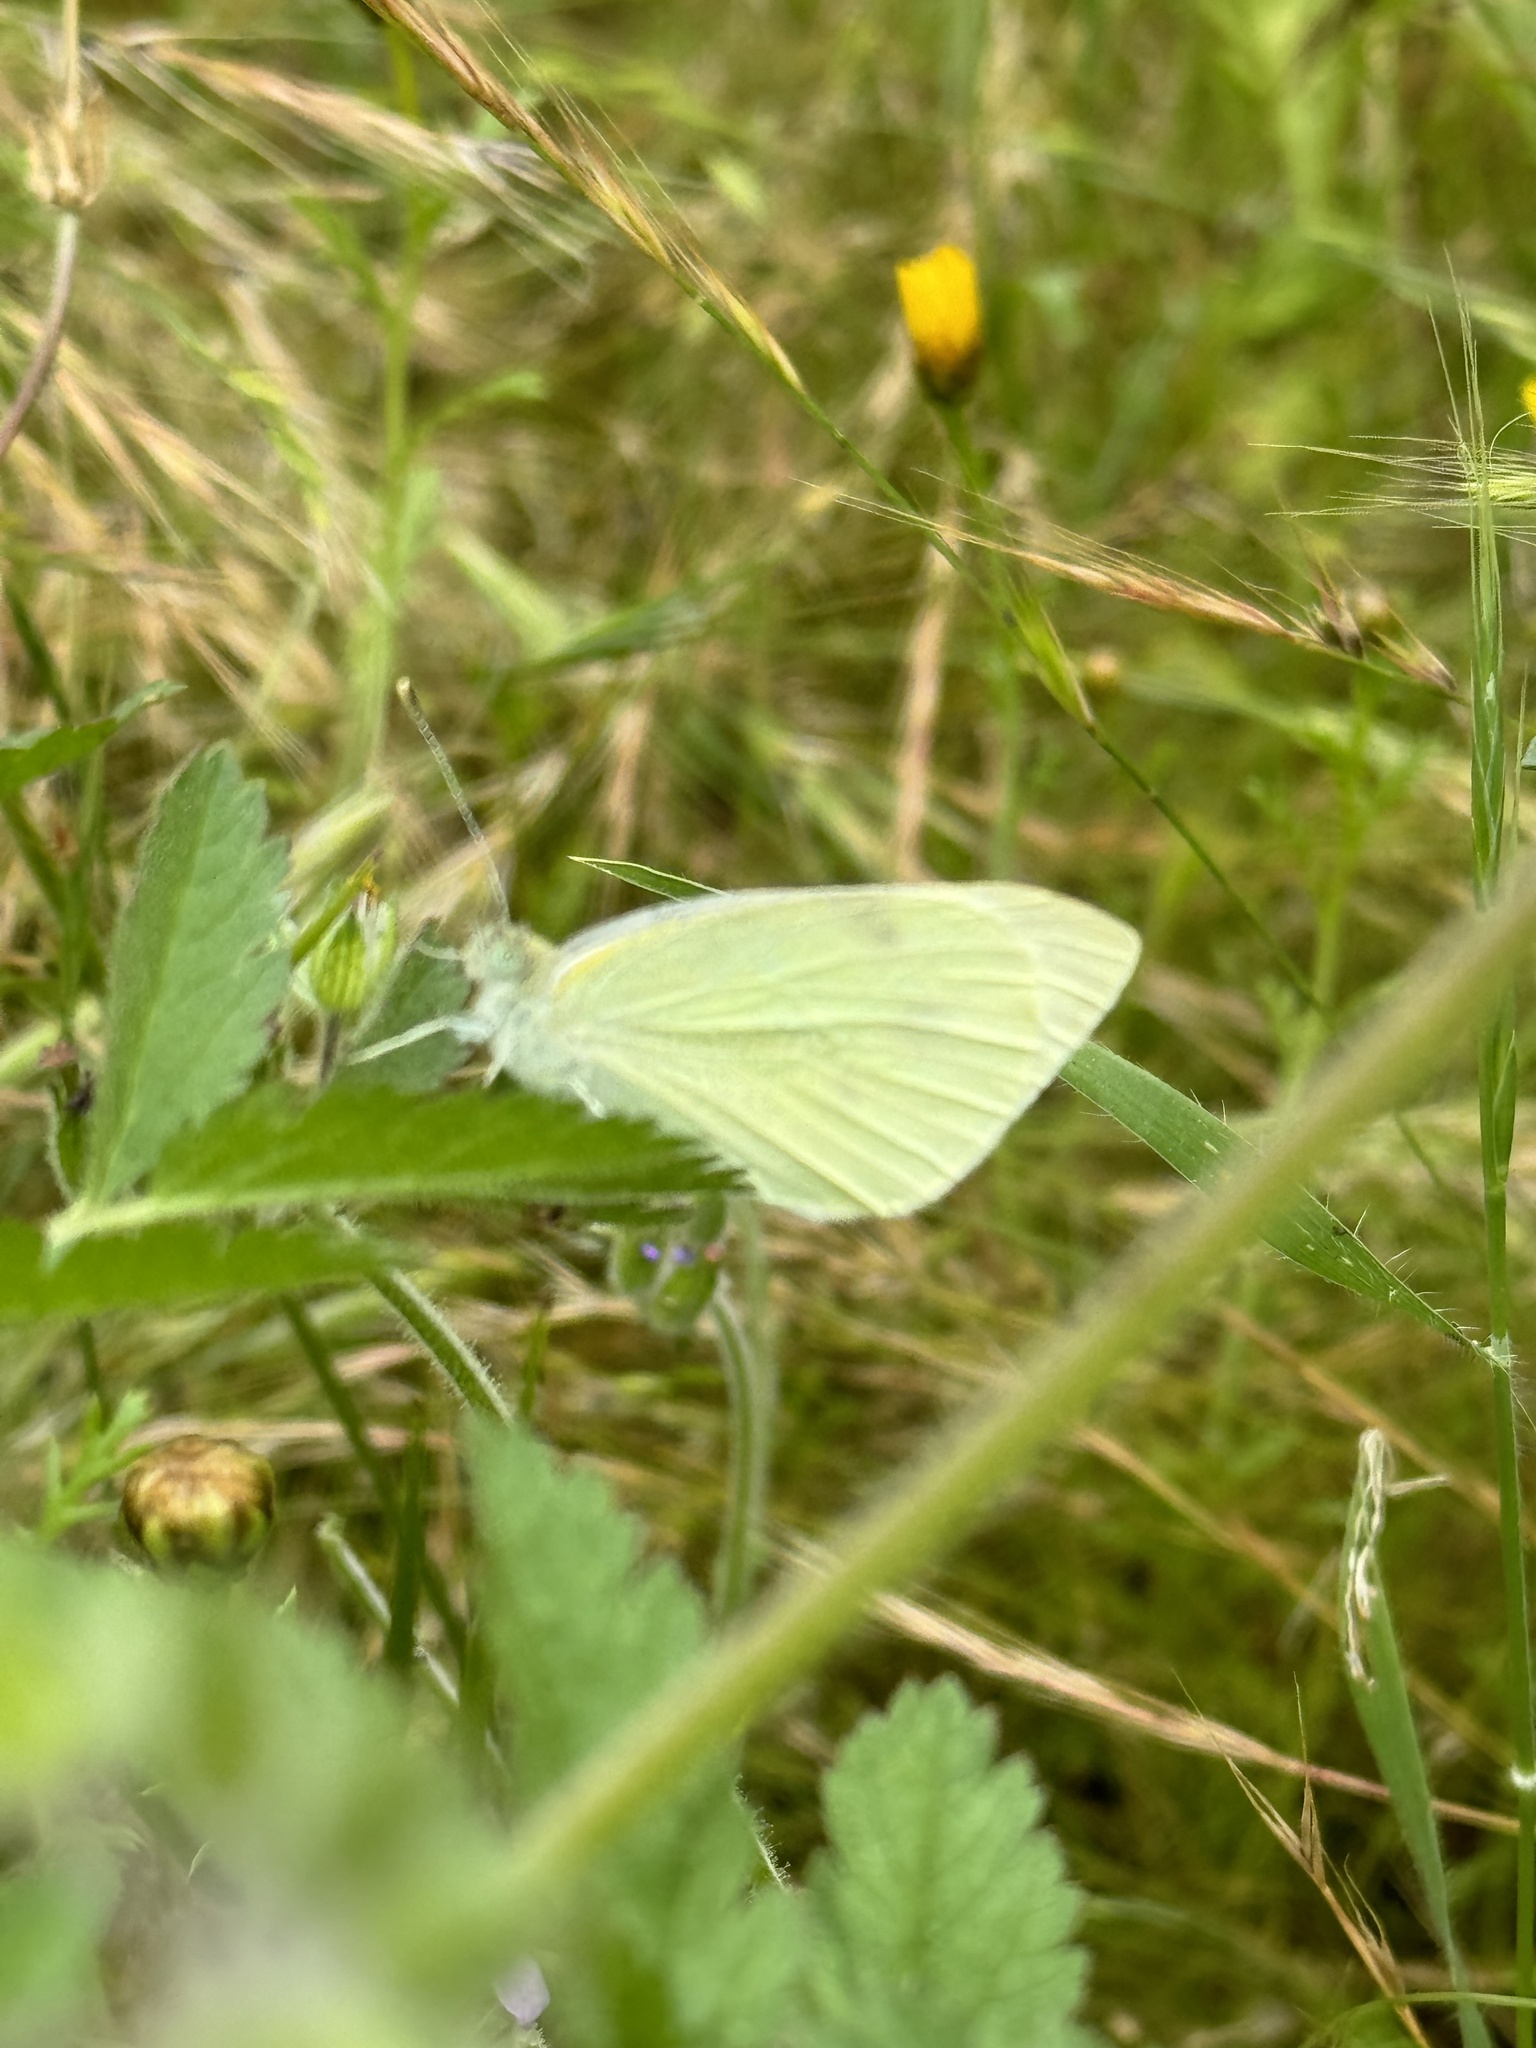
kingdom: Animalia
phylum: Arthropoda
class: Insecta
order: Lepidoptera
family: Pieridae
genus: Pieris
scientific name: Pieris rapae
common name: Small white
